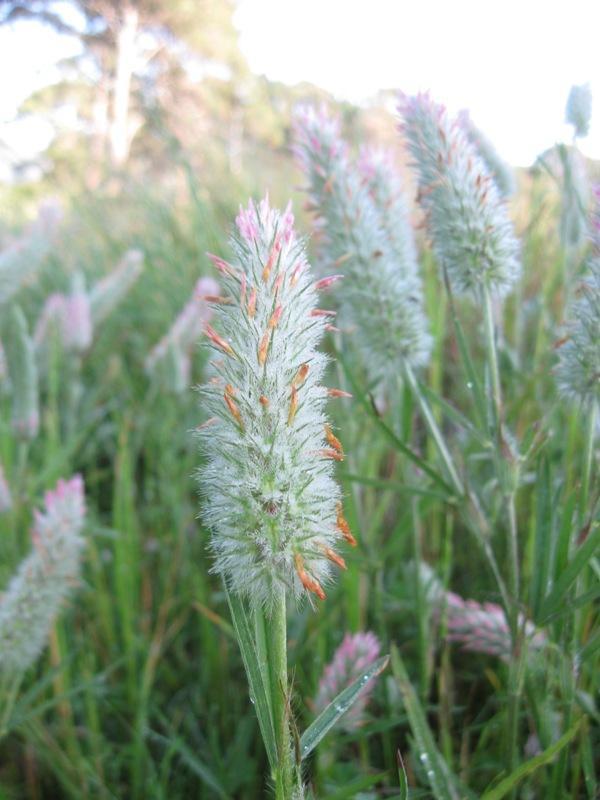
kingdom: Plantae
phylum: Tracheophyta
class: Magnoliopsida
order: Fabales
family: Fabaceae
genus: Trifolium
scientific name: Trifolium angustifolium
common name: Narrow clover
